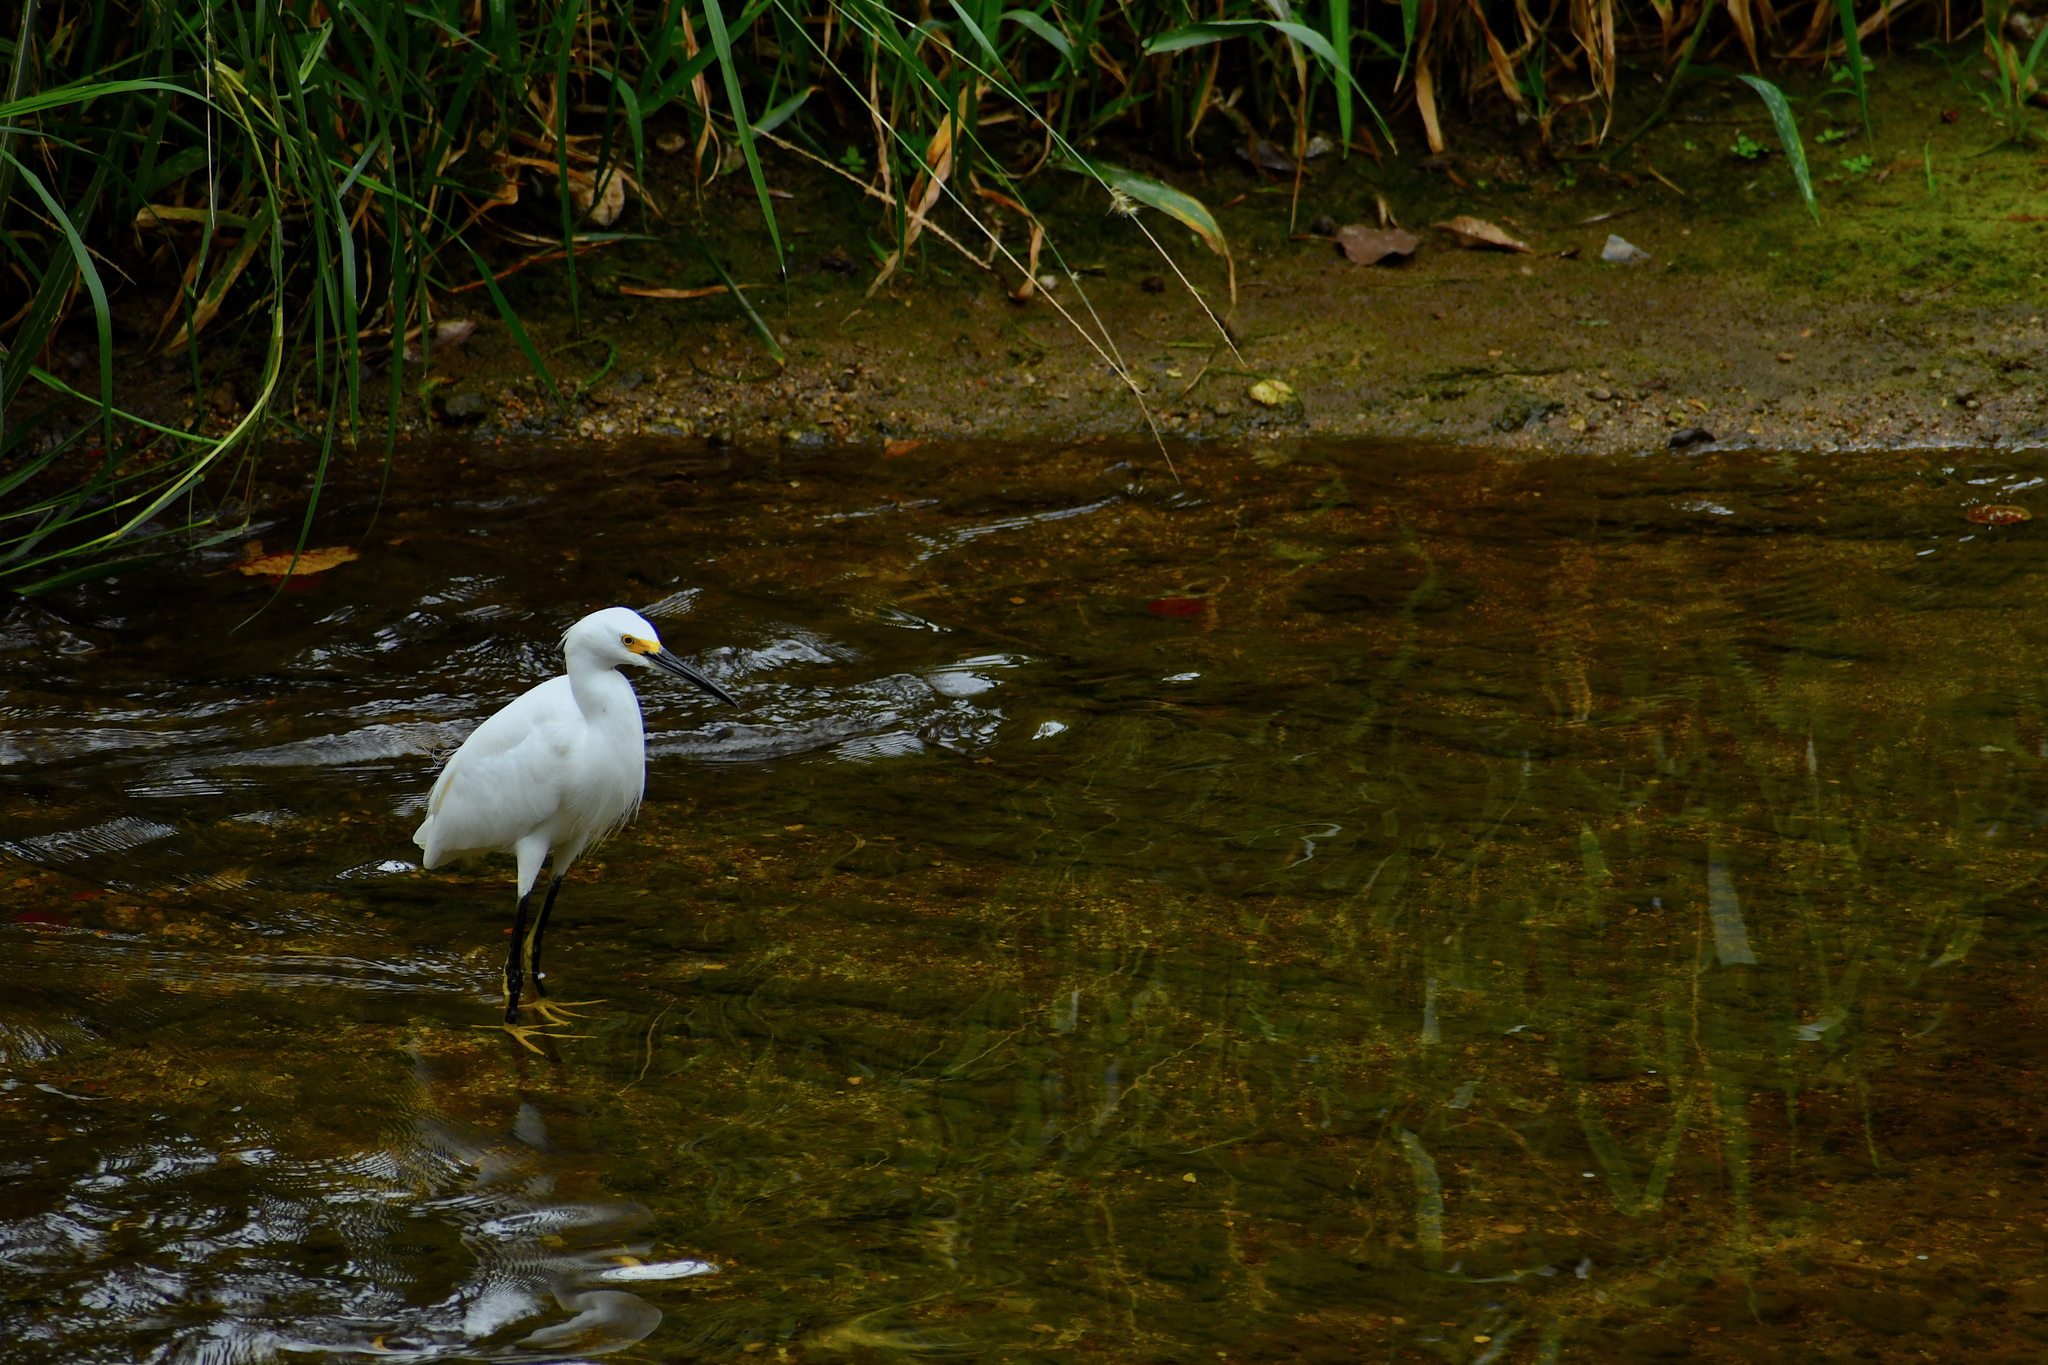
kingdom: Animalia
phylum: Chordata
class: Aves
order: Pelecaniformes
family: Ardeidae
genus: Egretta
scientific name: Egretta thula
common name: Snowy egret
